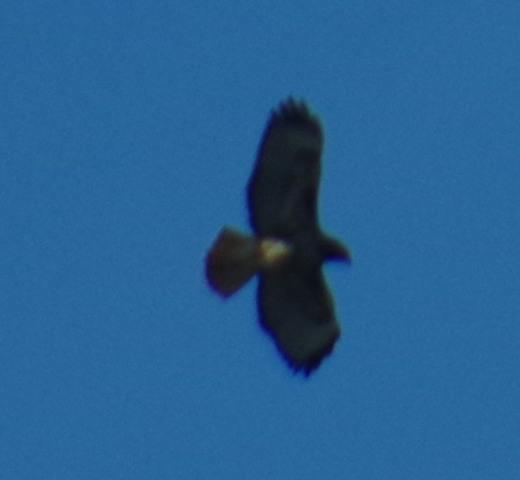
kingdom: Animalia
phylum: Chordata
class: Aves
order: Accipitriformes
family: Accipitridae
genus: Buteo
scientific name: Buteo jamaicensis
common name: Red-tailed hawk
